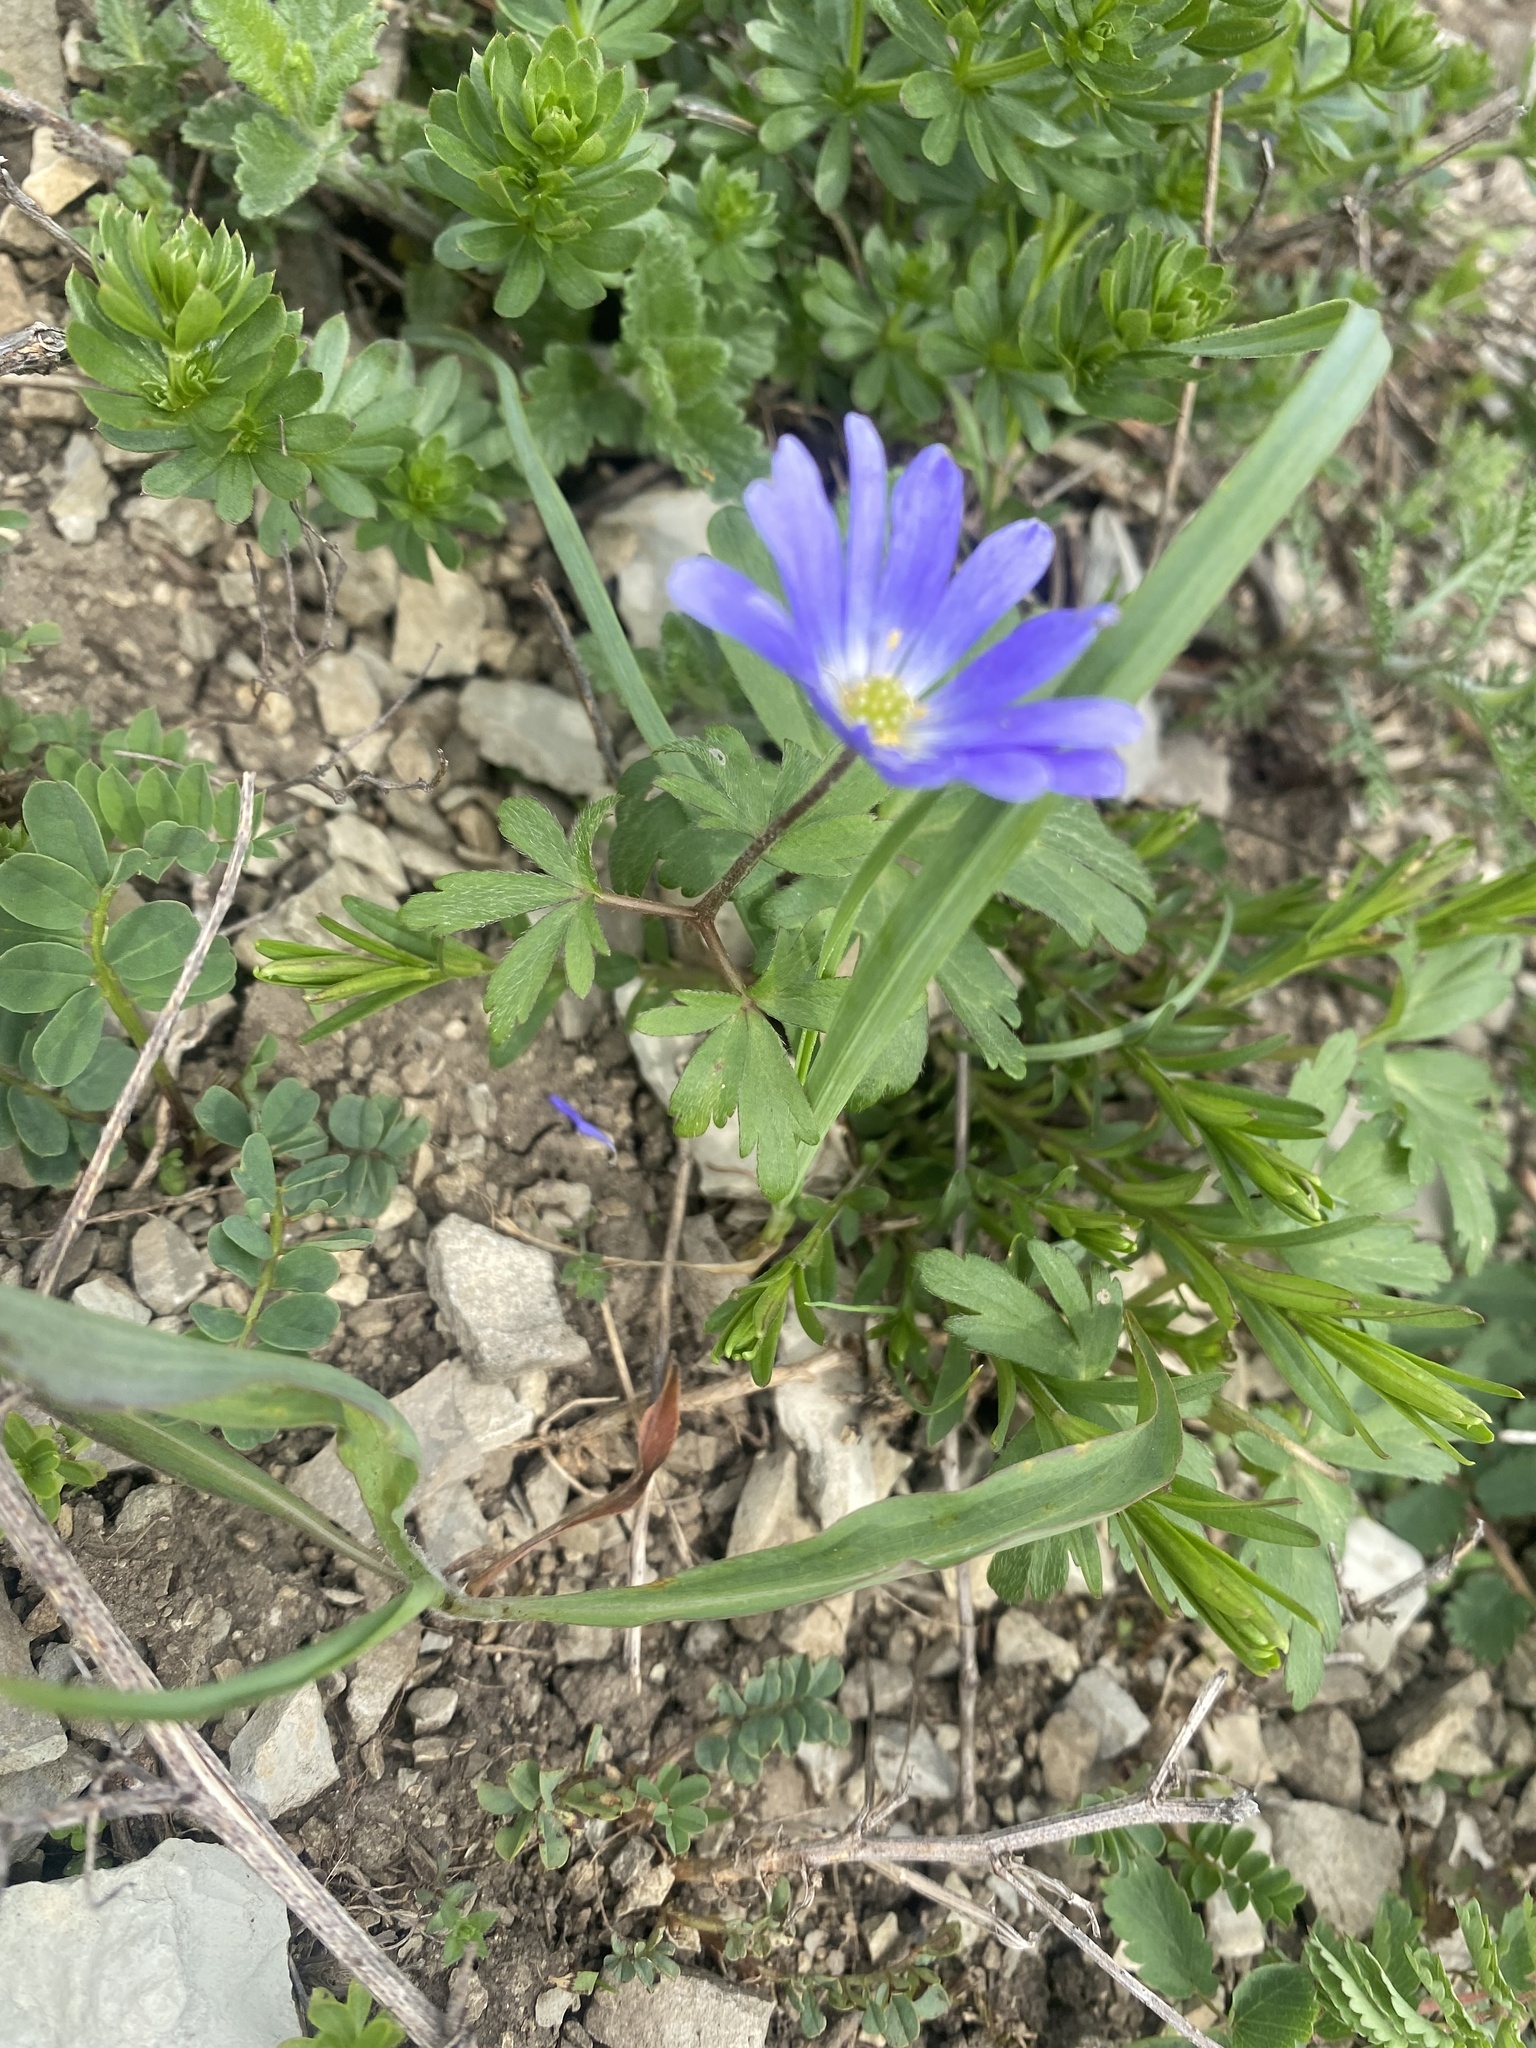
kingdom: Plantae
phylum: Tracheophyta
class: Magnoliopsida
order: Ranunculales
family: Ranunculaceae
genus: Anemone
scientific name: Anemone blanda
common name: Balkan anemone
